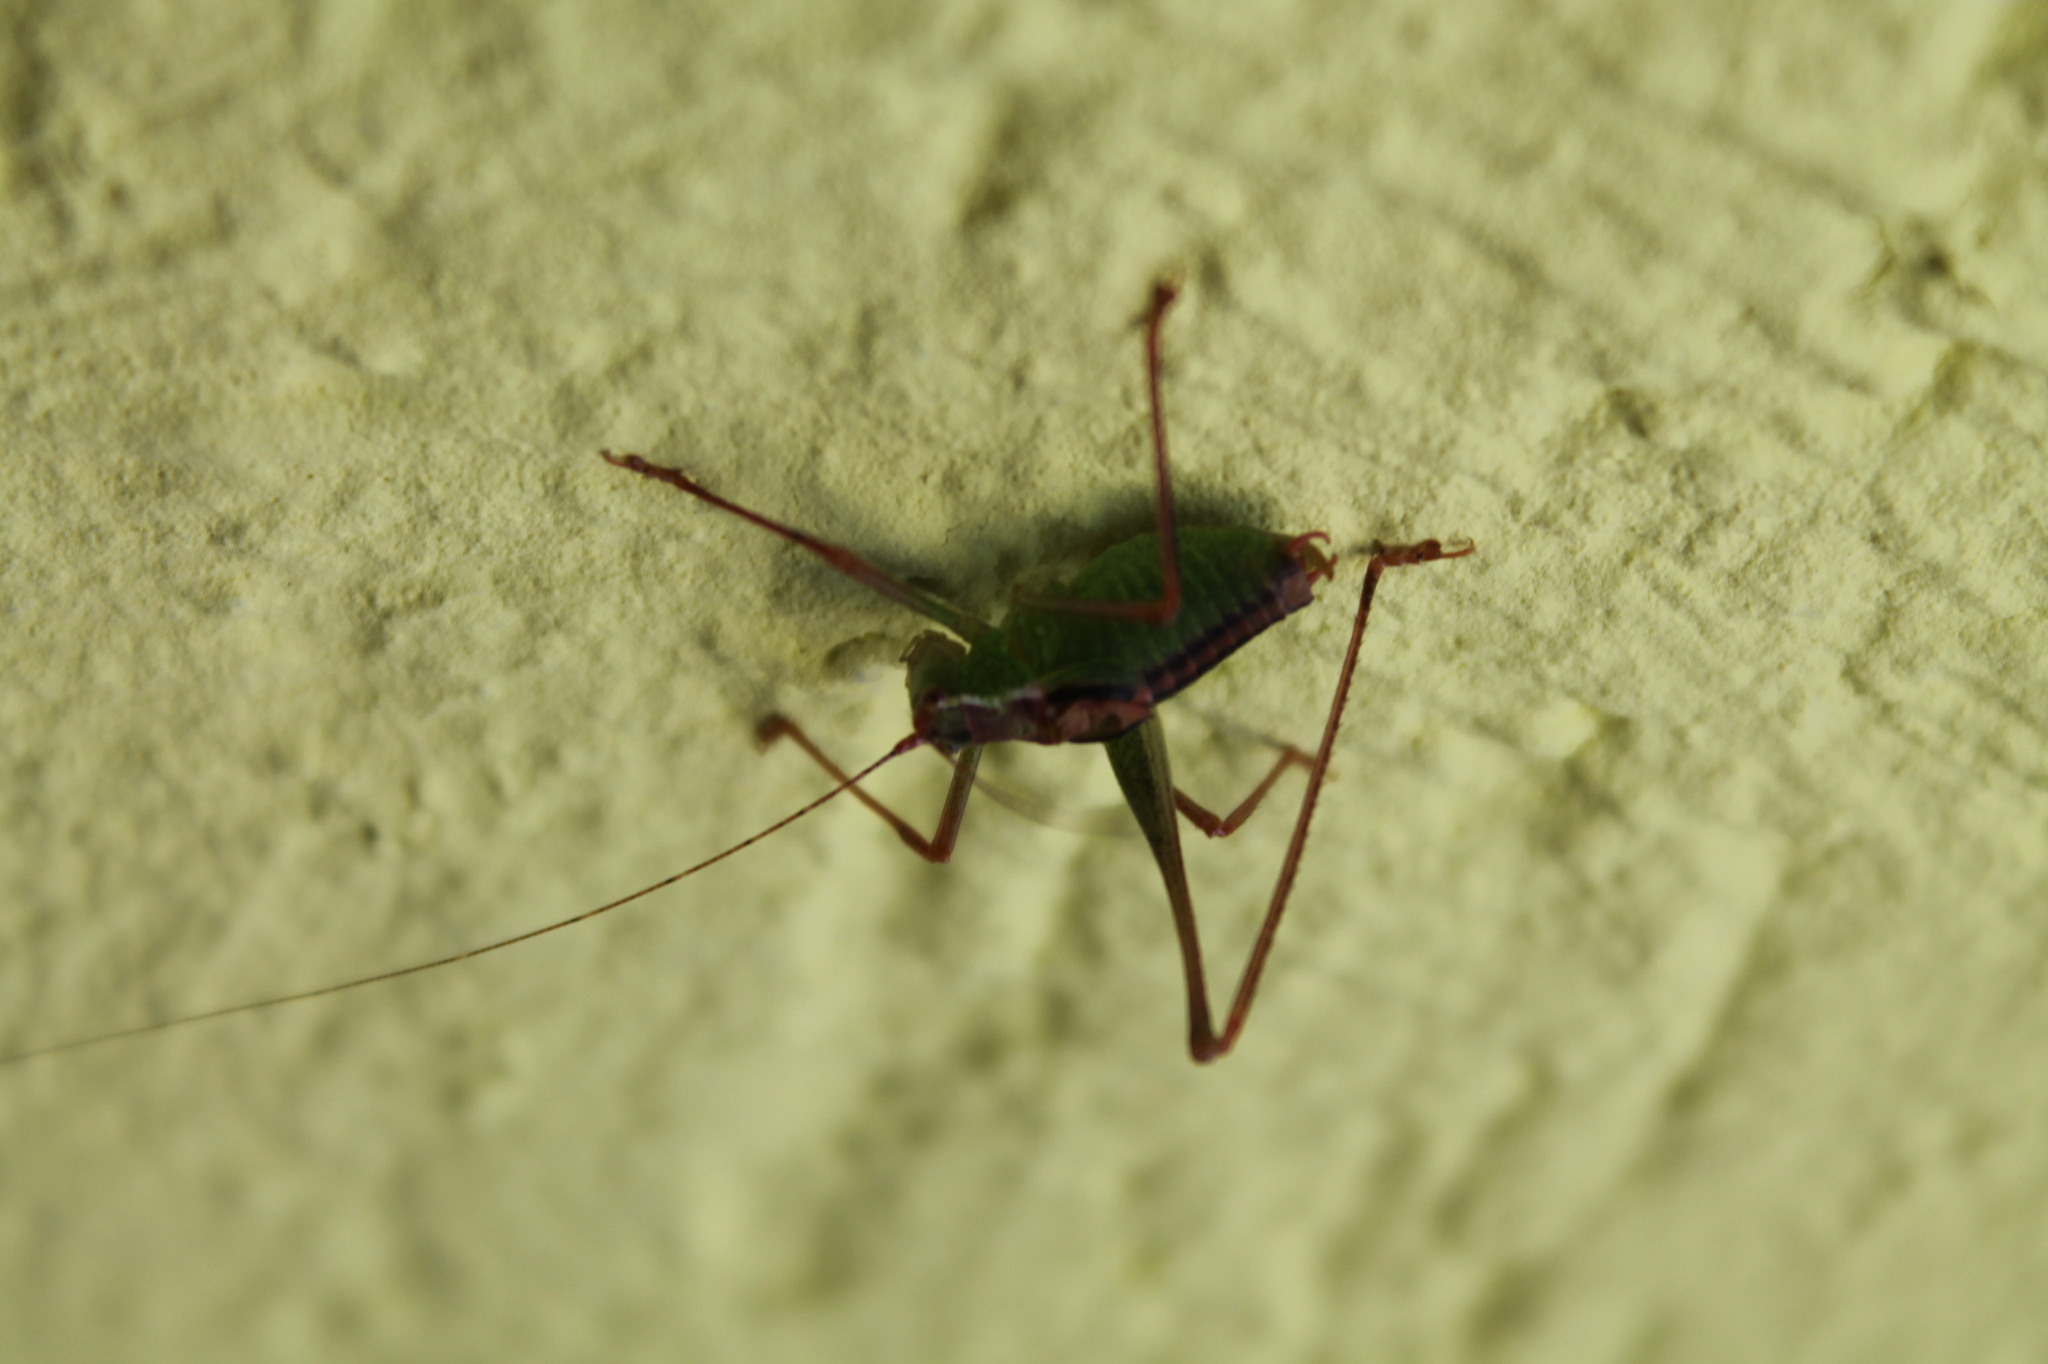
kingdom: Animalia
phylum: Arthropoda
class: Insecta
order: Orthoptera
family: Tettigoniidae
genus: Leptophyes
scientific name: Leptophyes punctatissima
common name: Speckled bush-cricket
